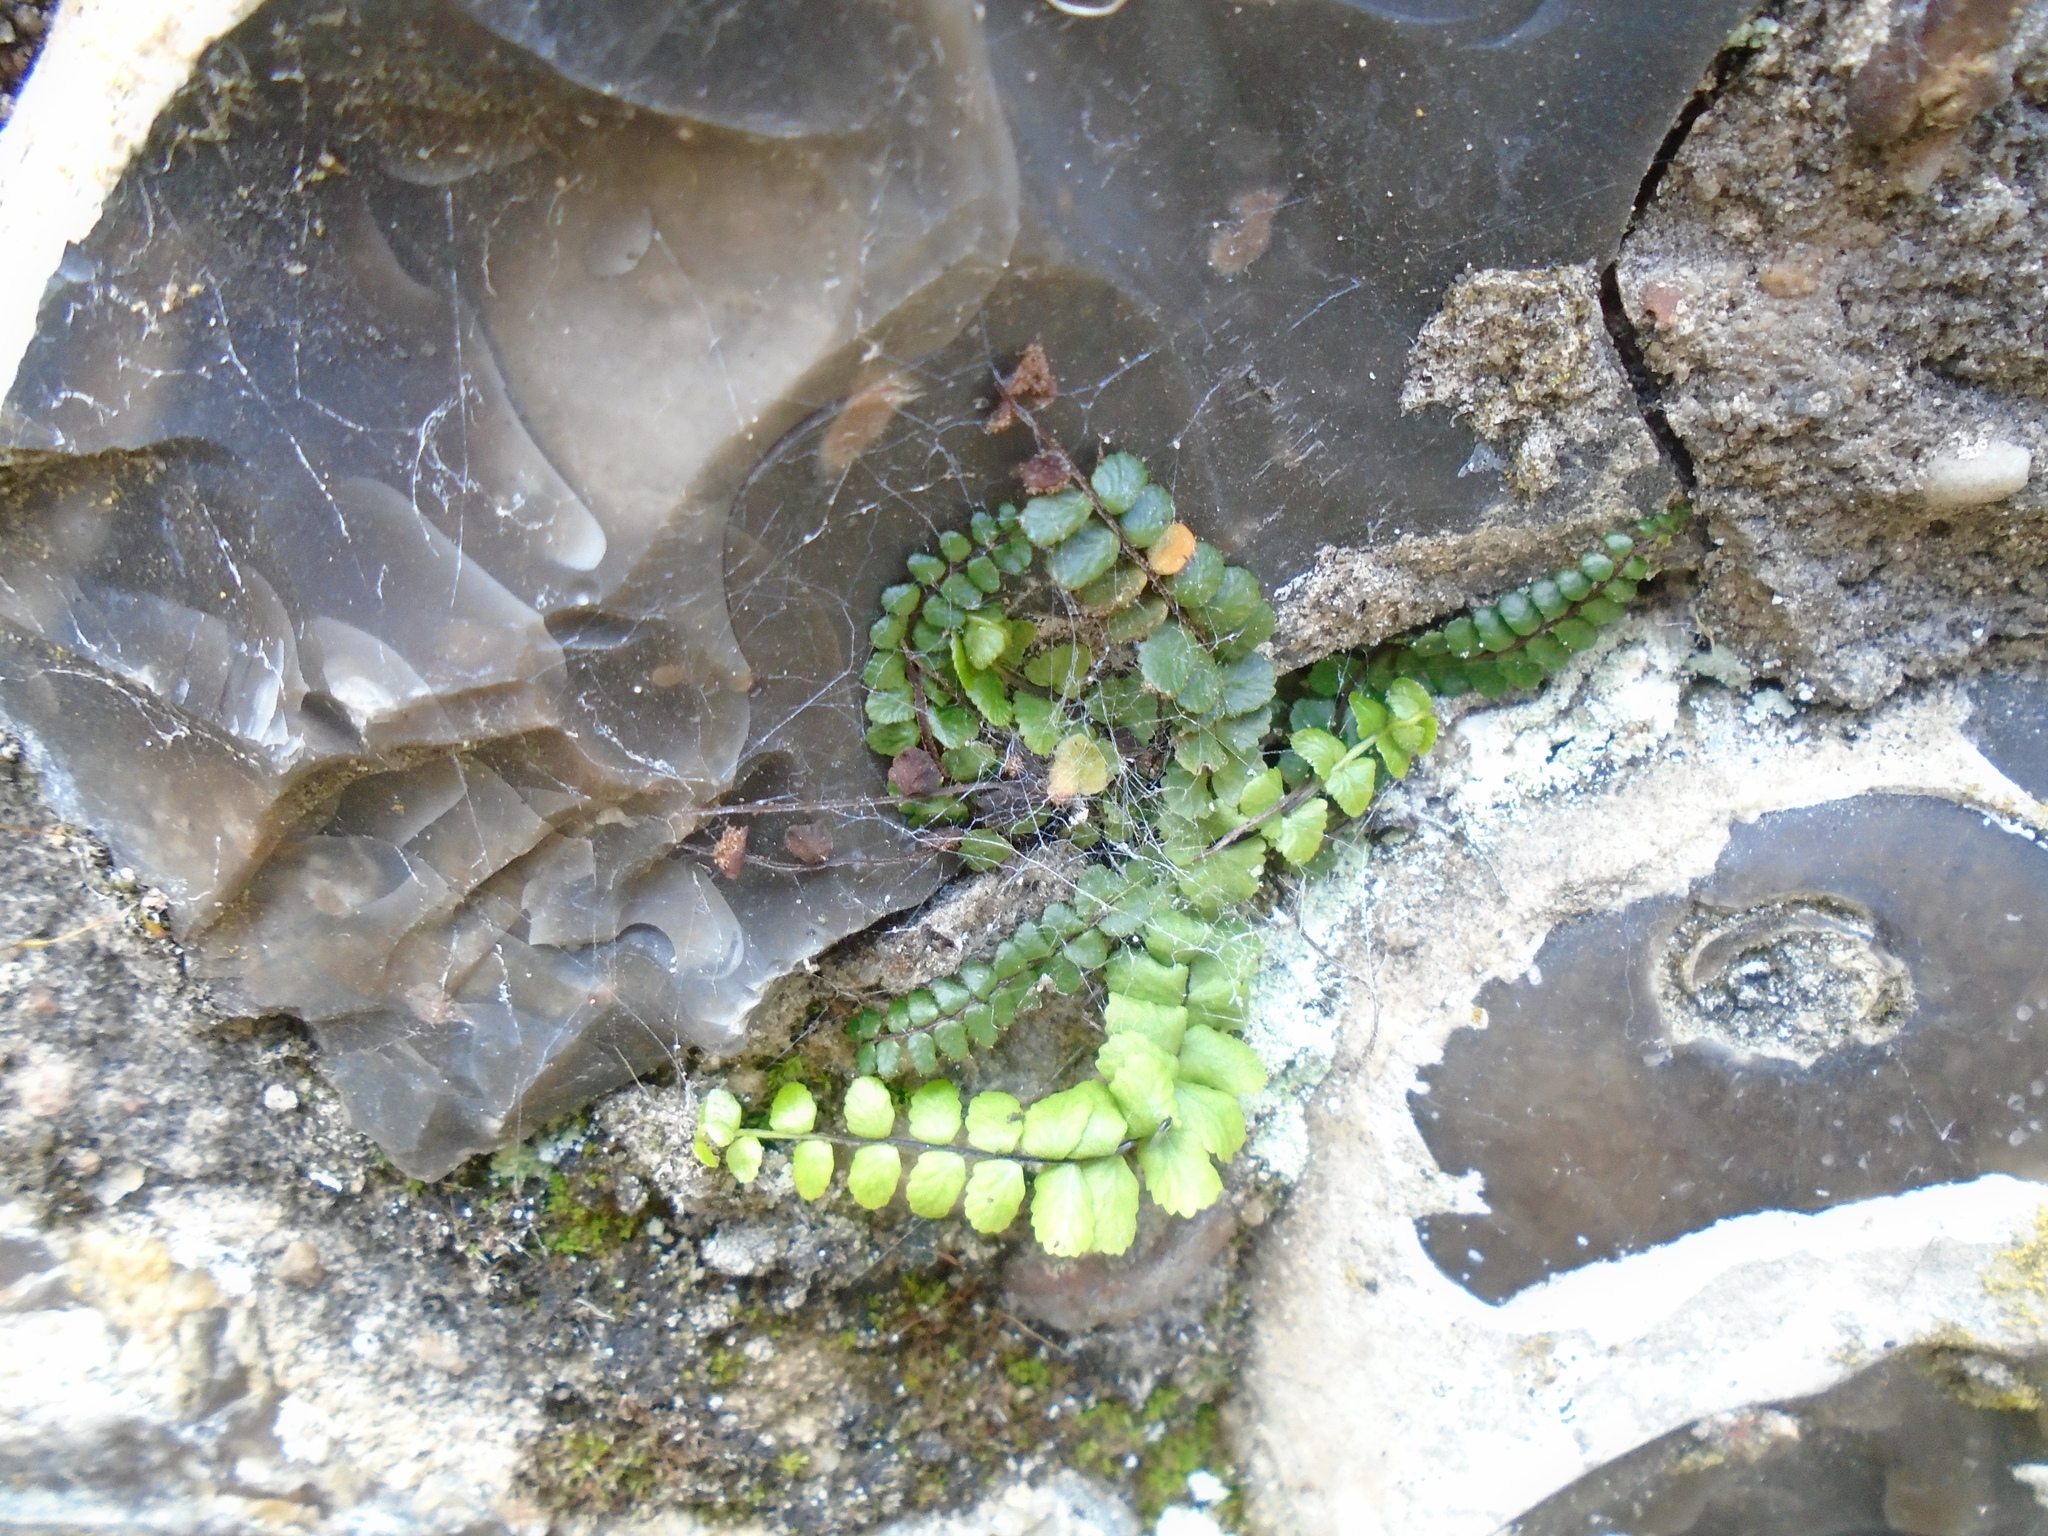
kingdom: Plantae
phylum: Tracheophyta
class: Polypodiopsida
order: Polypodiales
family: Aspleniaceae
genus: Asplenium
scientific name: Asplenium trichomanes
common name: Maidenhair spleenwort
